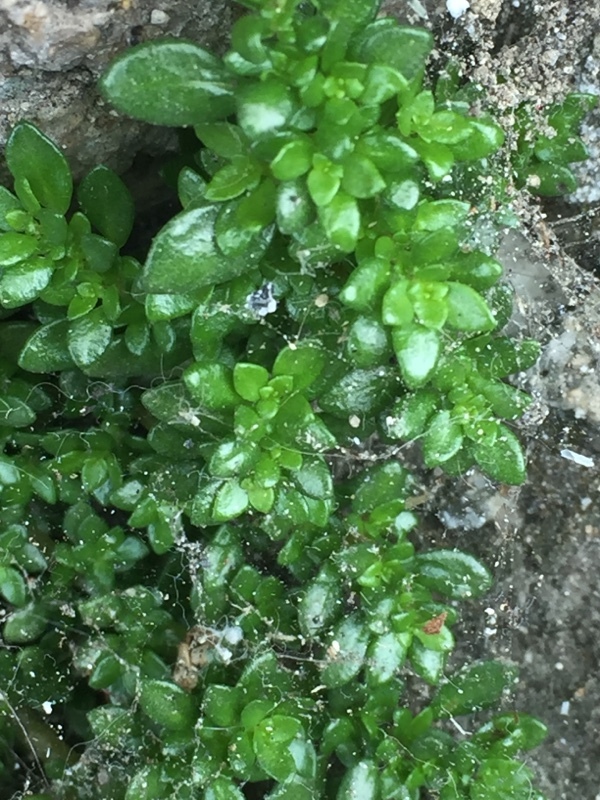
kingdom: Plantae
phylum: Tracheophyta
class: Magnoliopsida
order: Rosales
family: Urticaceae
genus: Pilea
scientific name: Pilea microphylla
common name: Artillery-plant
